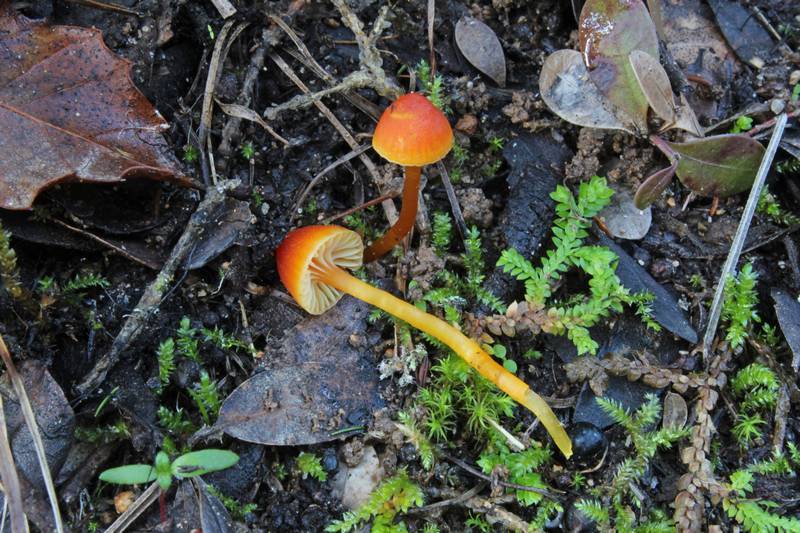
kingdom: Fungi
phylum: Basidiomycota
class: Agaricomycetes
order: Agaricales
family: Hygrophoraceae
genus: Hygrocybe
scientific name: Hygrocybe mucronella
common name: Bitter waxcap
